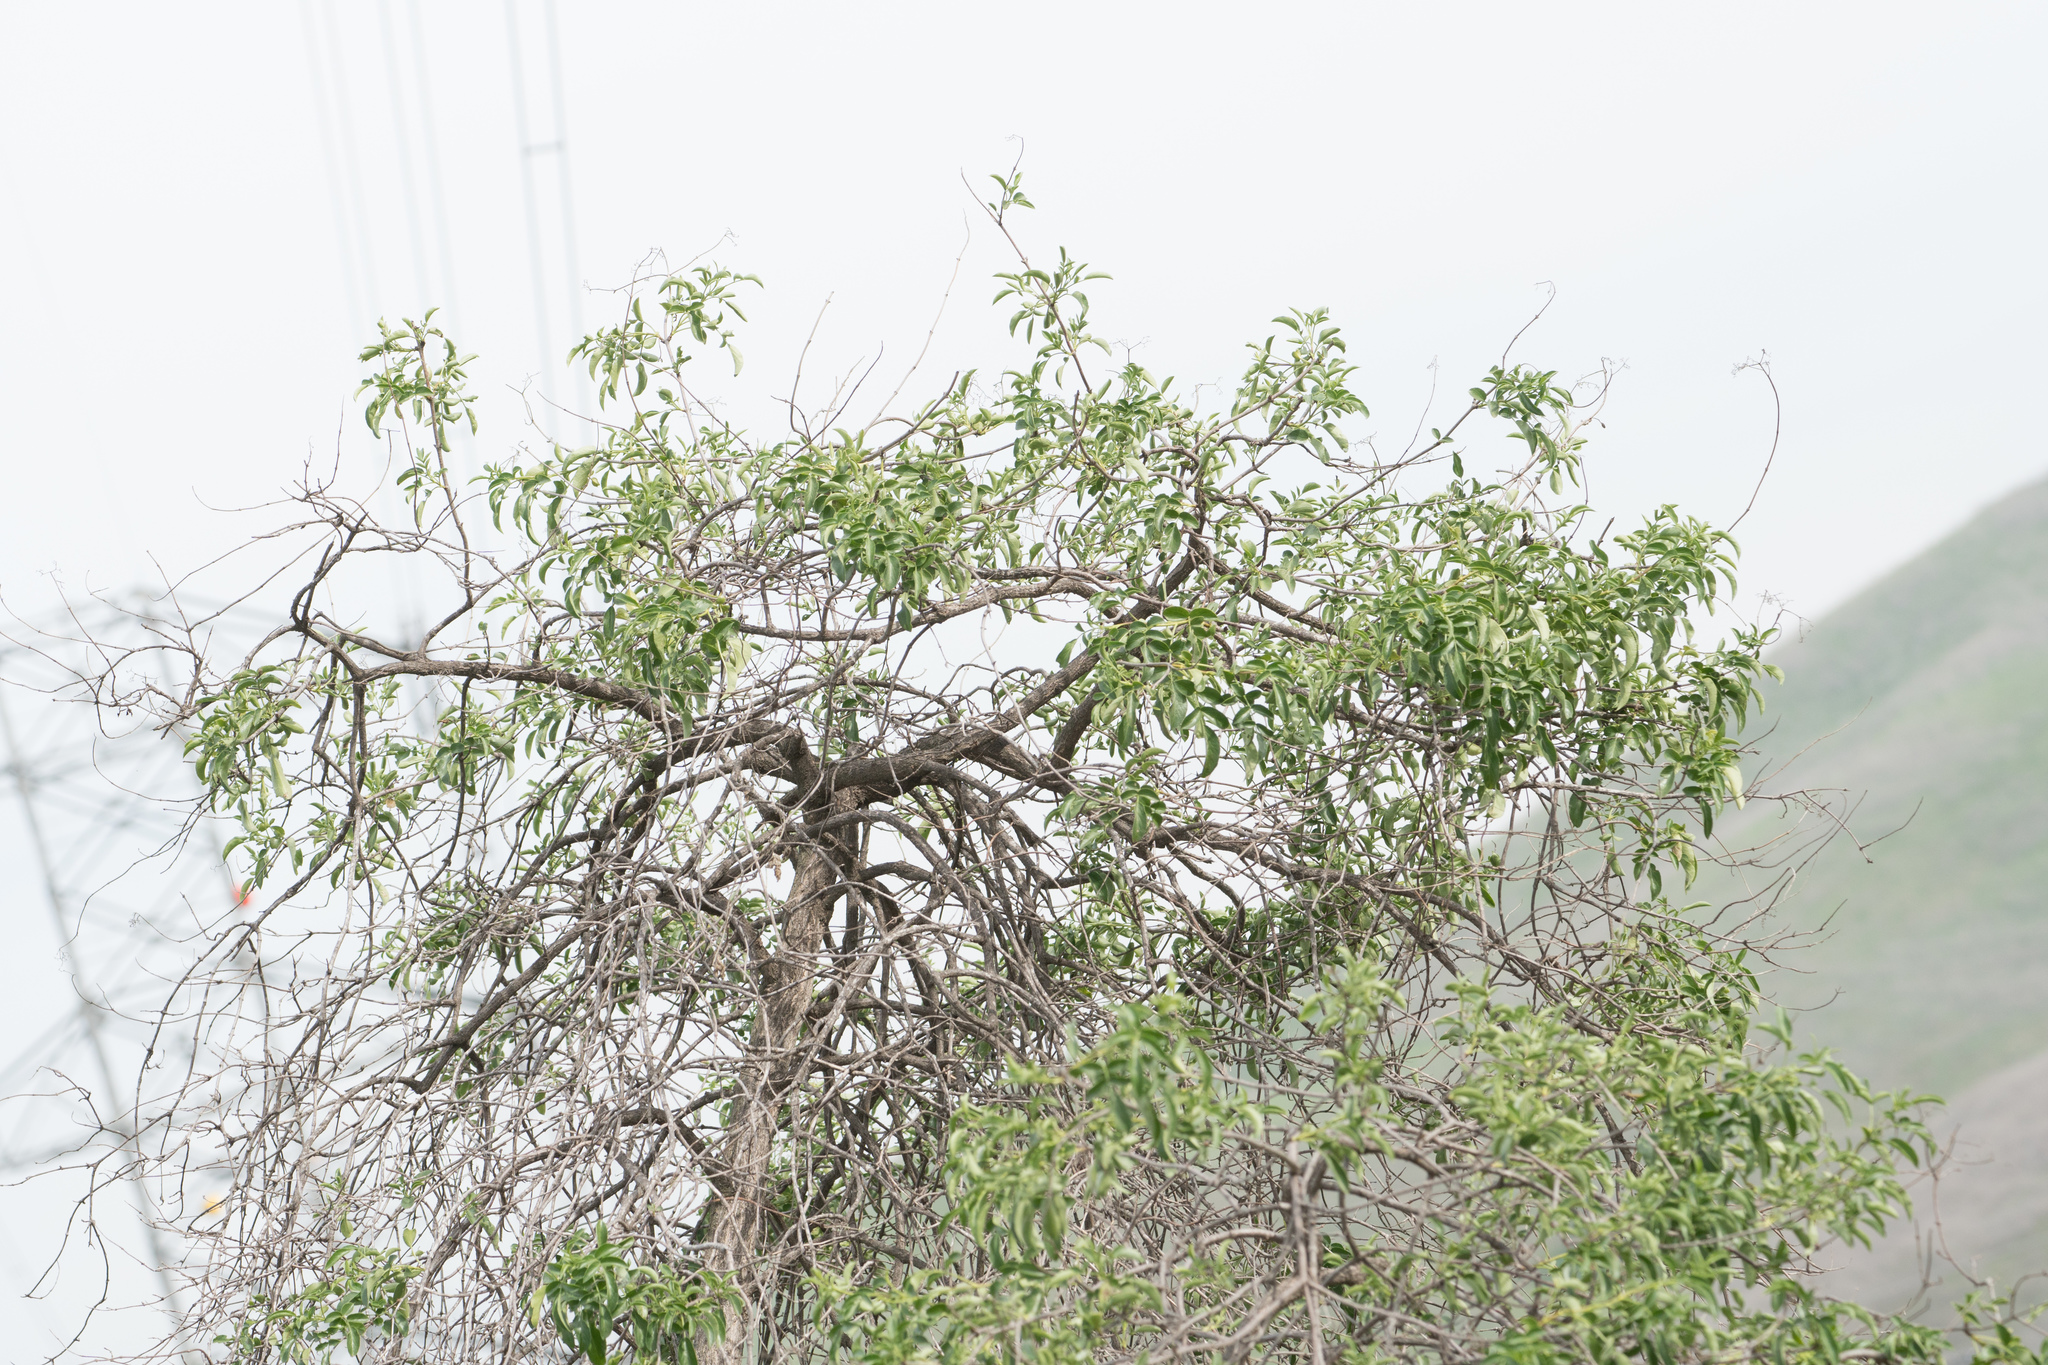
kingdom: Plantae
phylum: Tracheophyta
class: Magnoliopsida
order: Dipsacales
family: Viburnaceae
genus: Sambucus
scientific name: Sambucus cerulea
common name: Blue elder
